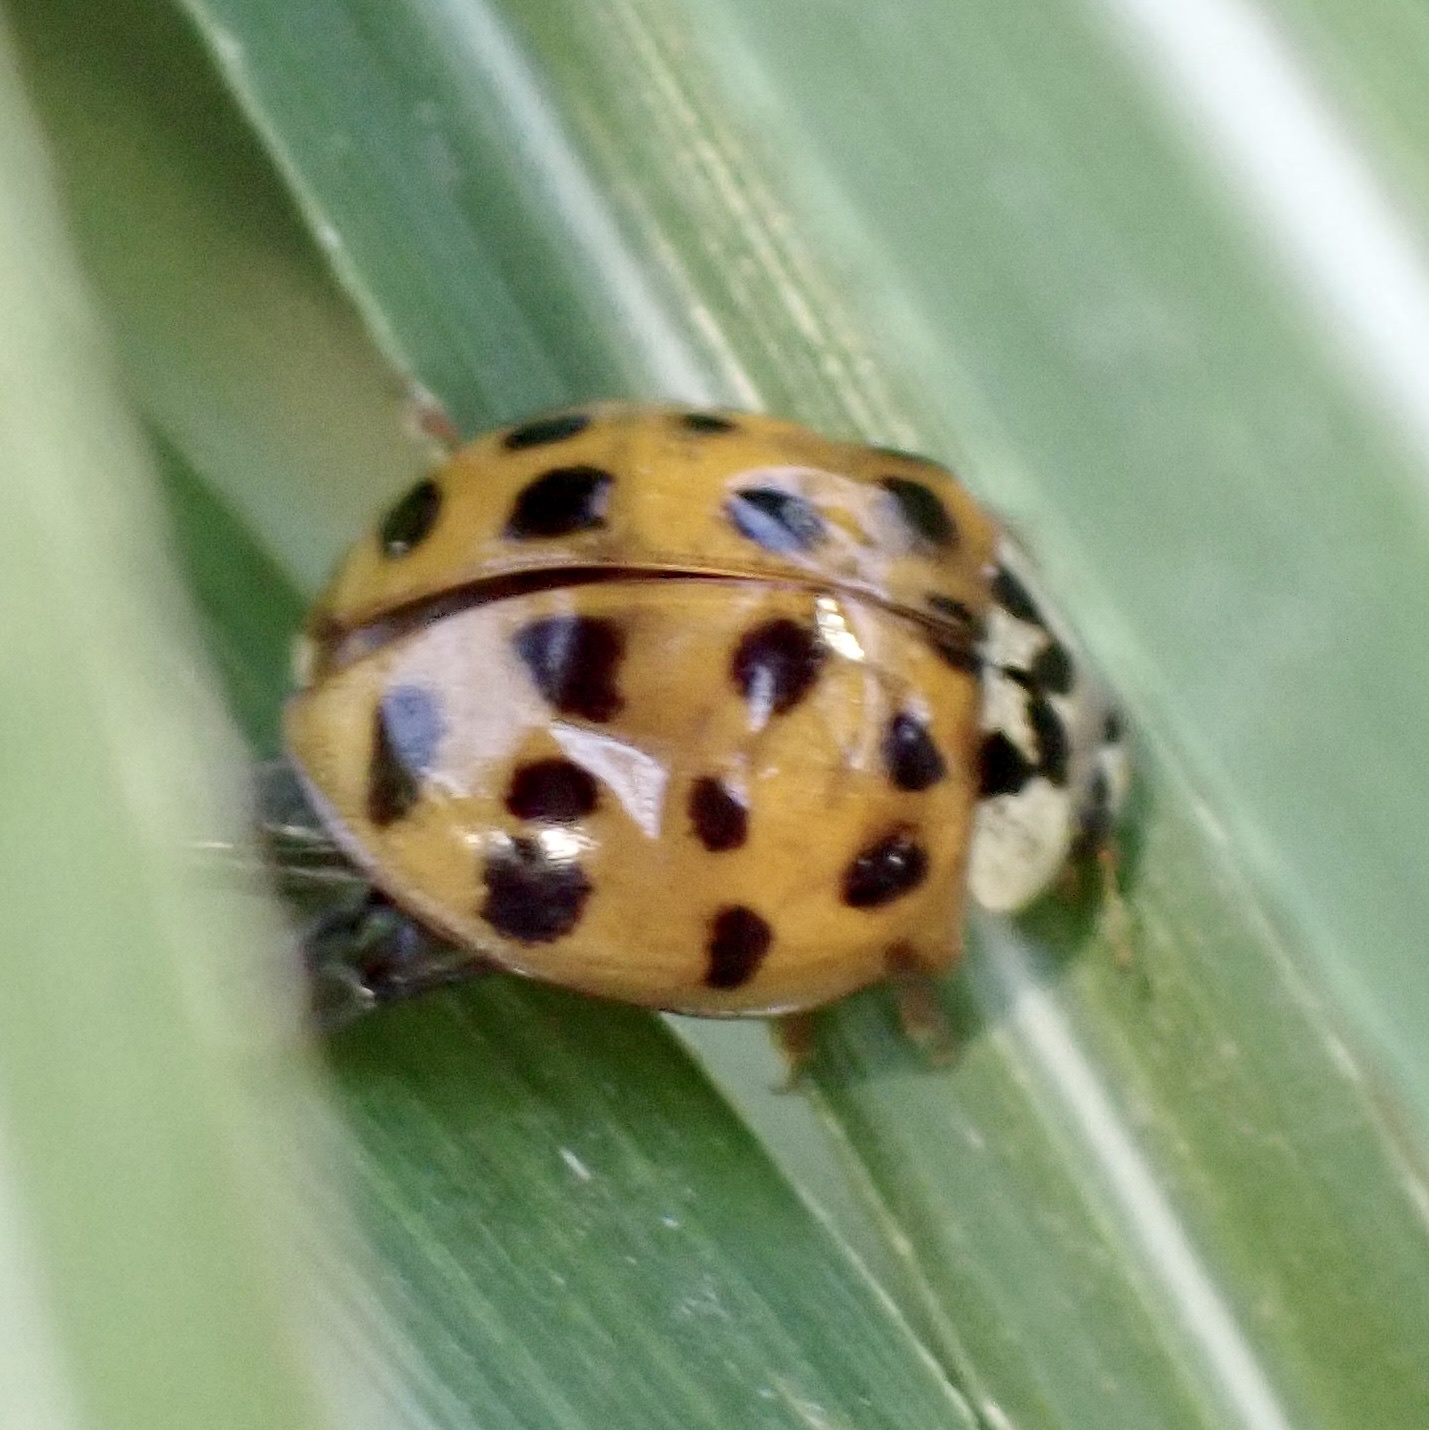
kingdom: Animalia
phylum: Arthropoda
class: Insecta
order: Coleoptera
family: Coccinellidae
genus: Harmonia
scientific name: Harmonia axyridis
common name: Harlequin ladybird
